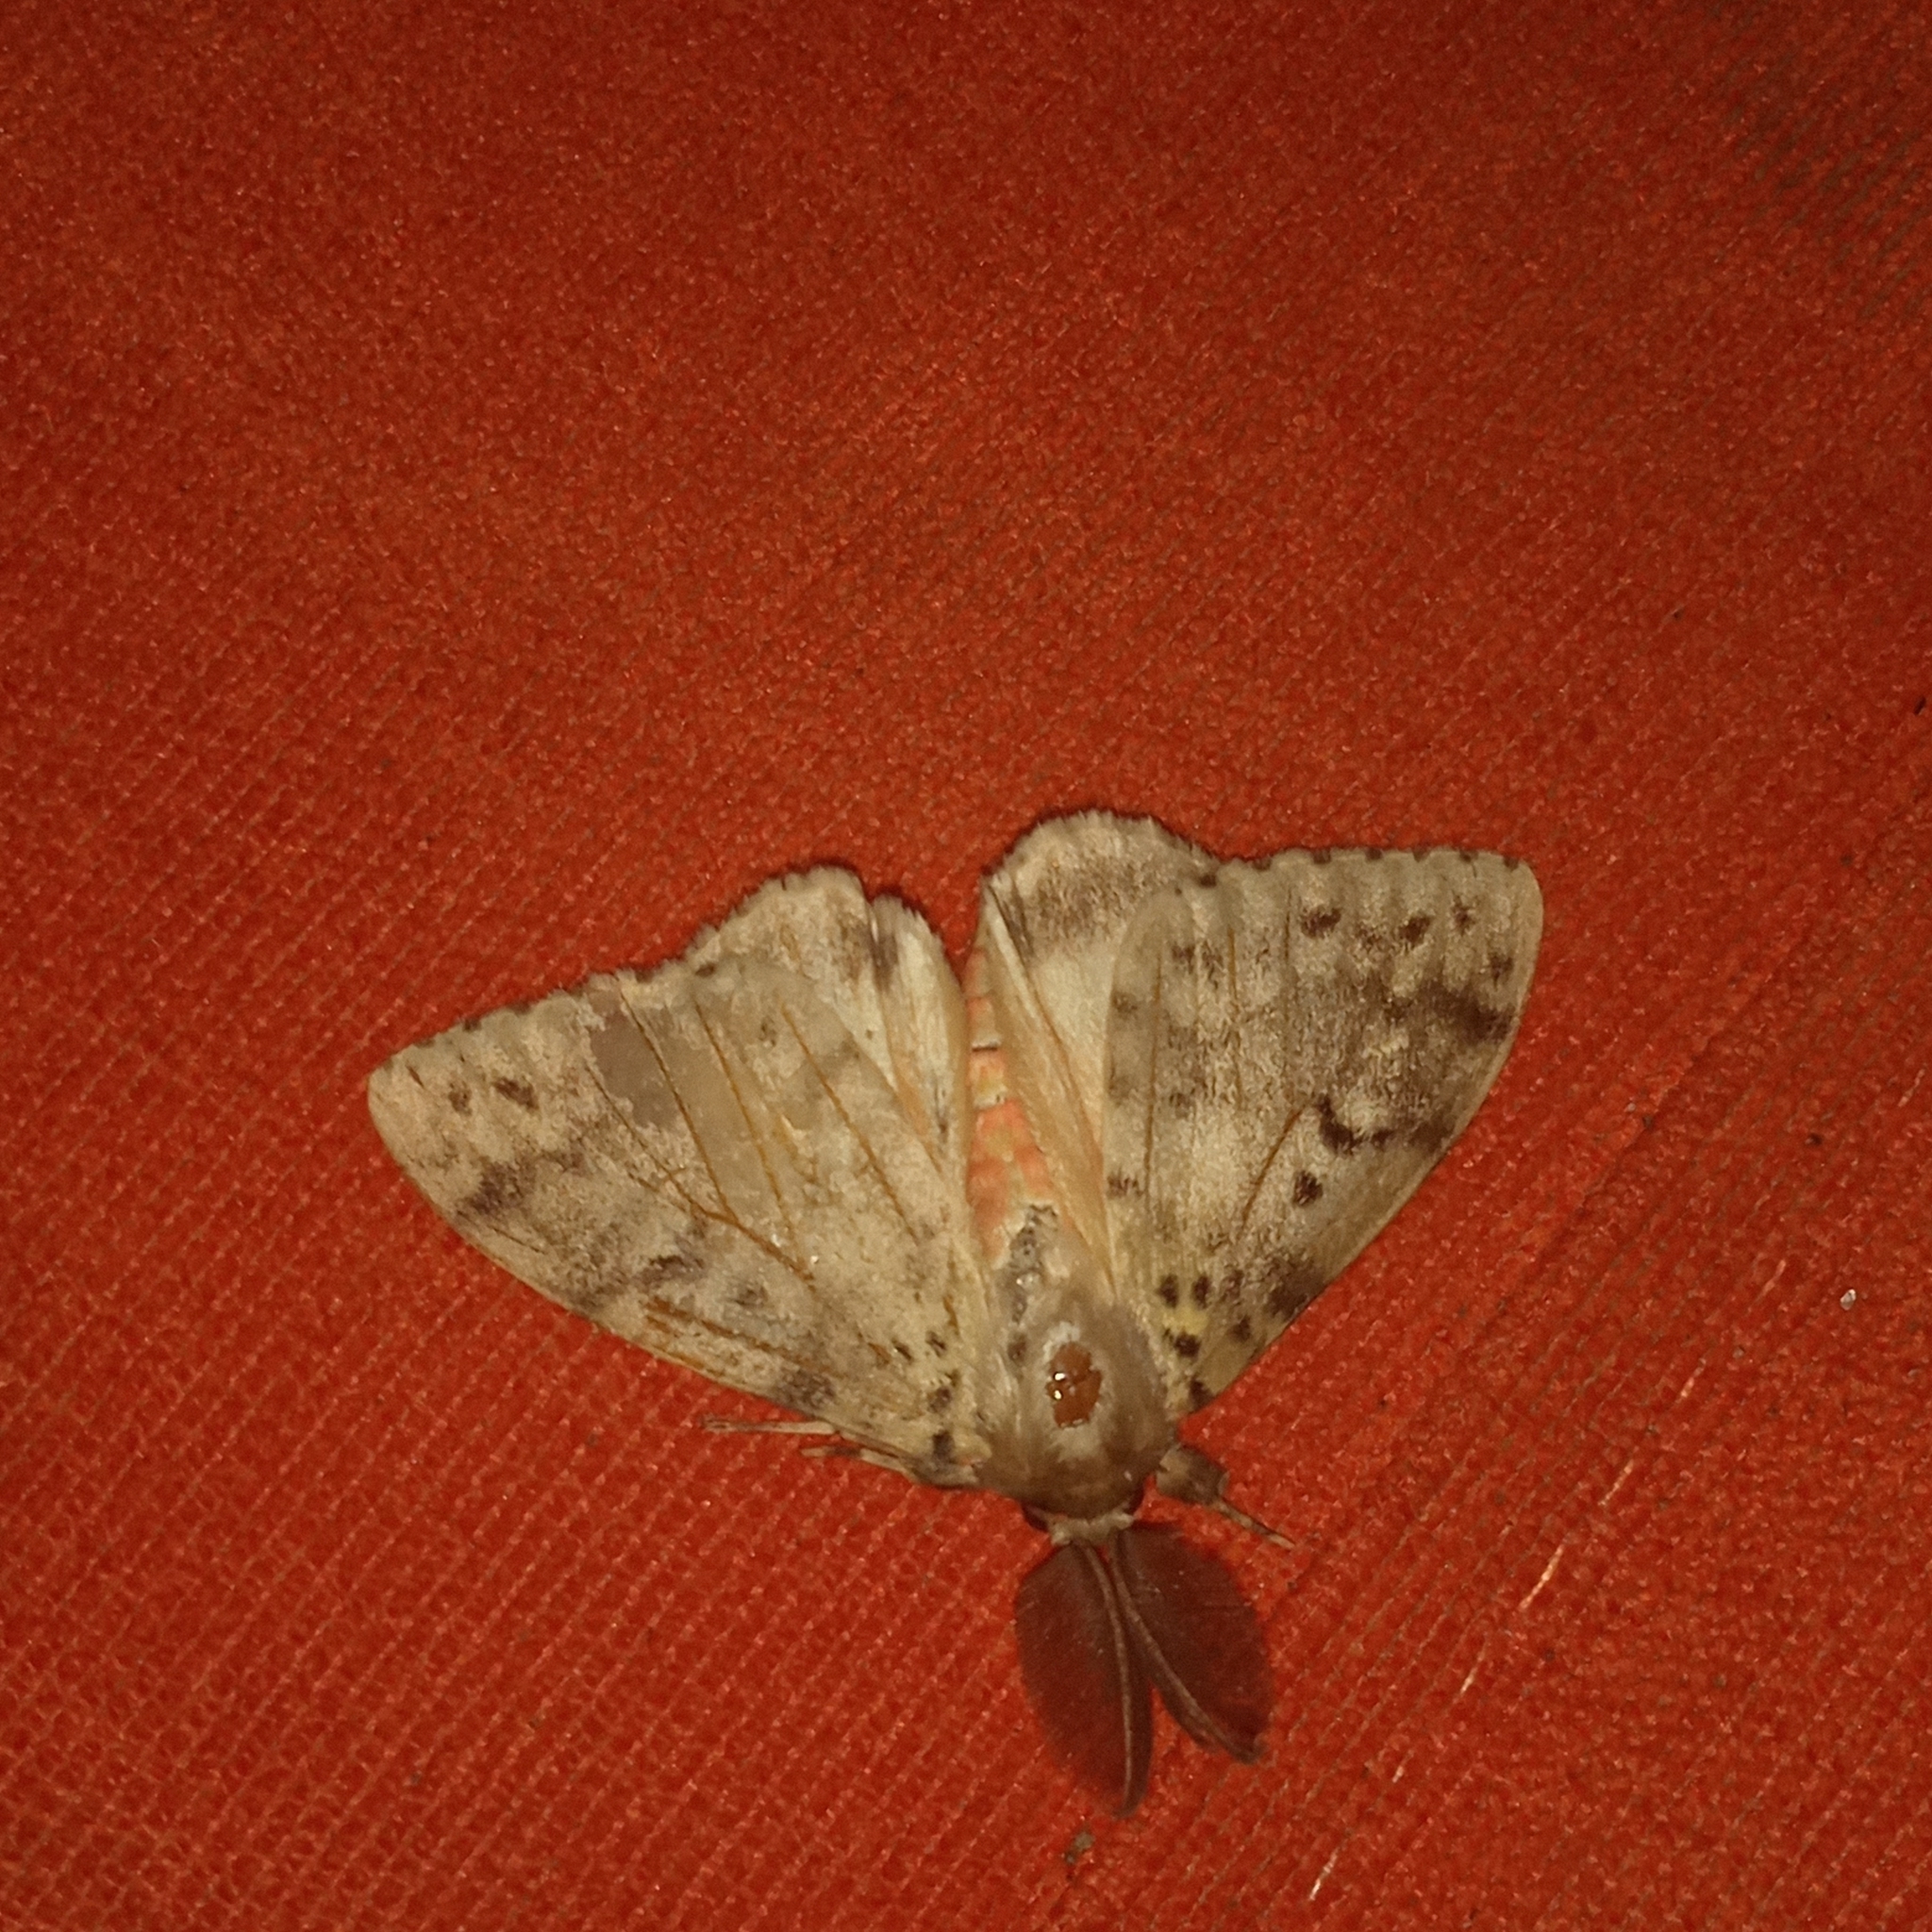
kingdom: Animalia
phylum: Arthropoda
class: Insecta
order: Lepidoptera
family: Erebidae
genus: Lymantria
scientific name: Lymantria lunata
